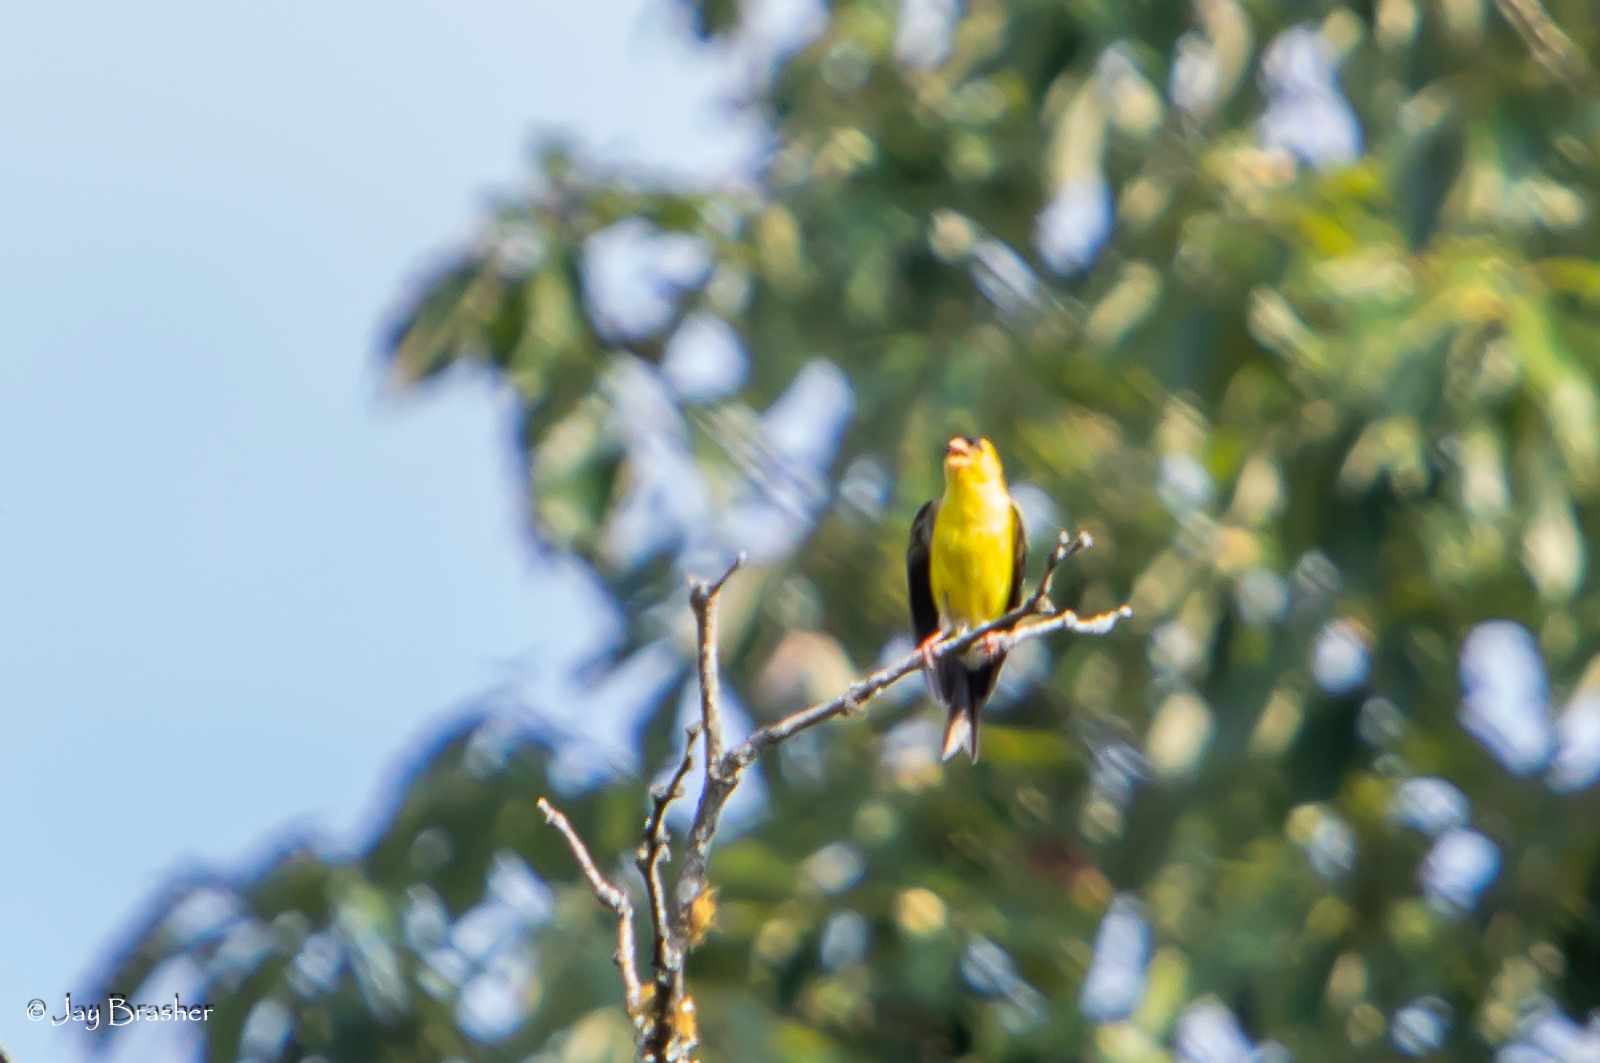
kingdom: Animalia
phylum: Chordata
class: Aves
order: Passeriformes
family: Fringillidae
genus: Spinus
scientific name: Spinus tristis
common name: American goldfinch
